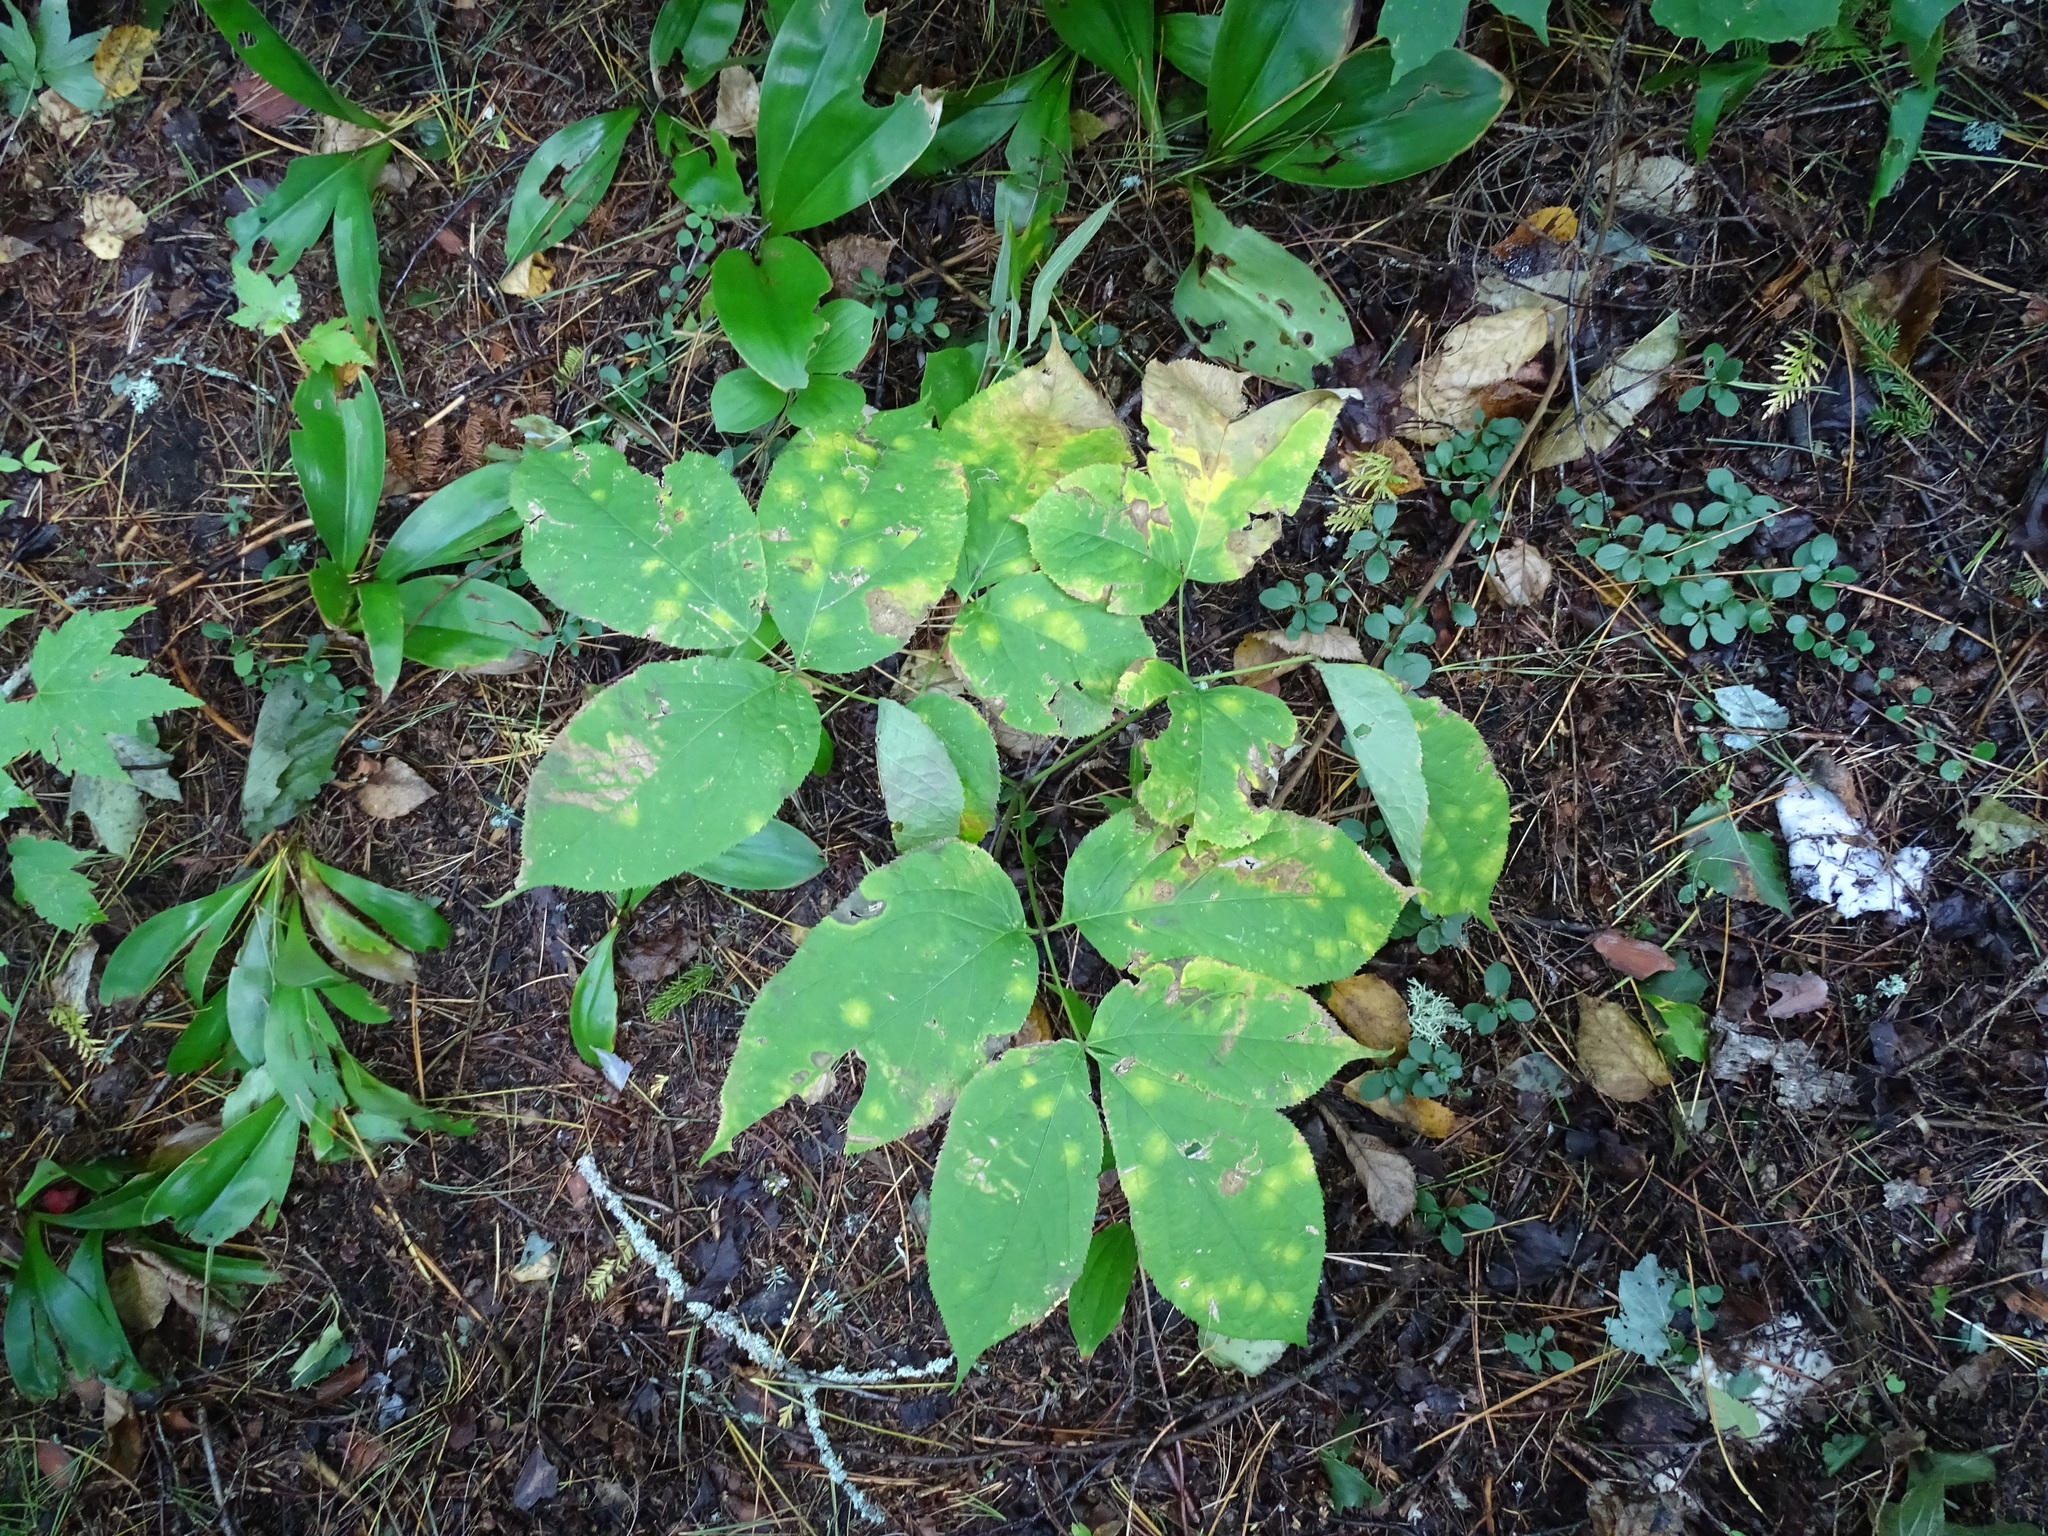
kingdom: Plantae
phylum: Tracheophyta
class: Magnoliopsida
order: Apiales
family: Araliaceae
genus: Aralia
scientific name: Aralia nudicaulis
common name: Wild sarsaparilla
